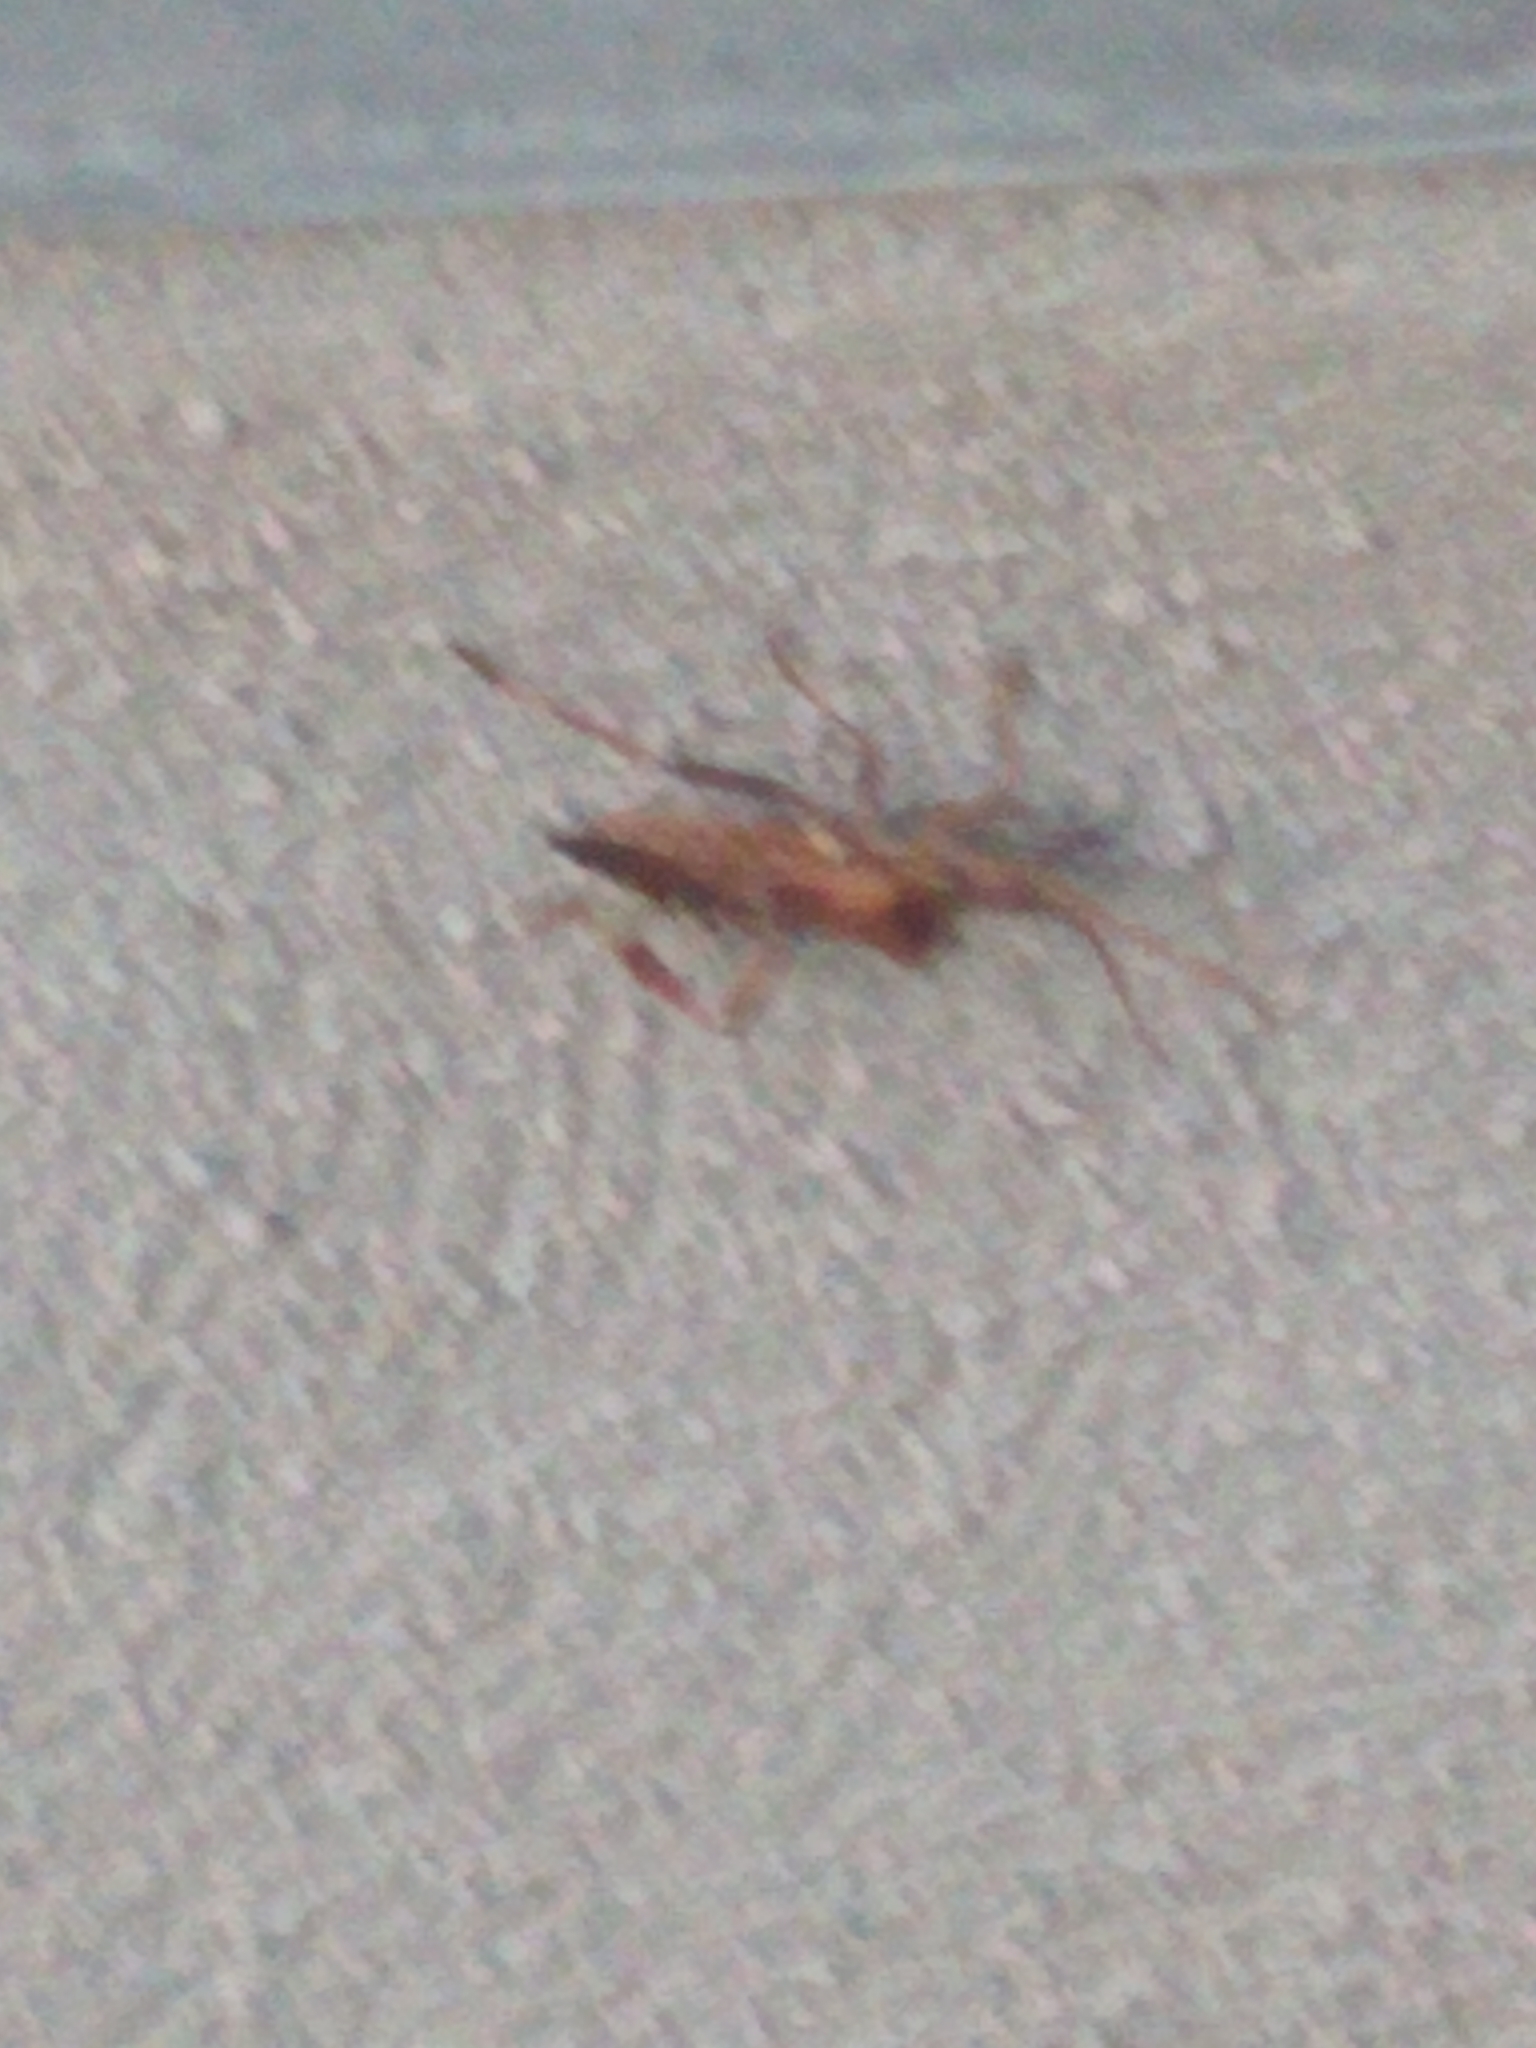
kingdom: Animalia
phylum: Arthropoda
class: Insecta
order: Hemiptera
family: Coreidae
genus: Leptoglossus
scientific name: Leptoglossus occidentalis
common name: Western conifer-seed bug
